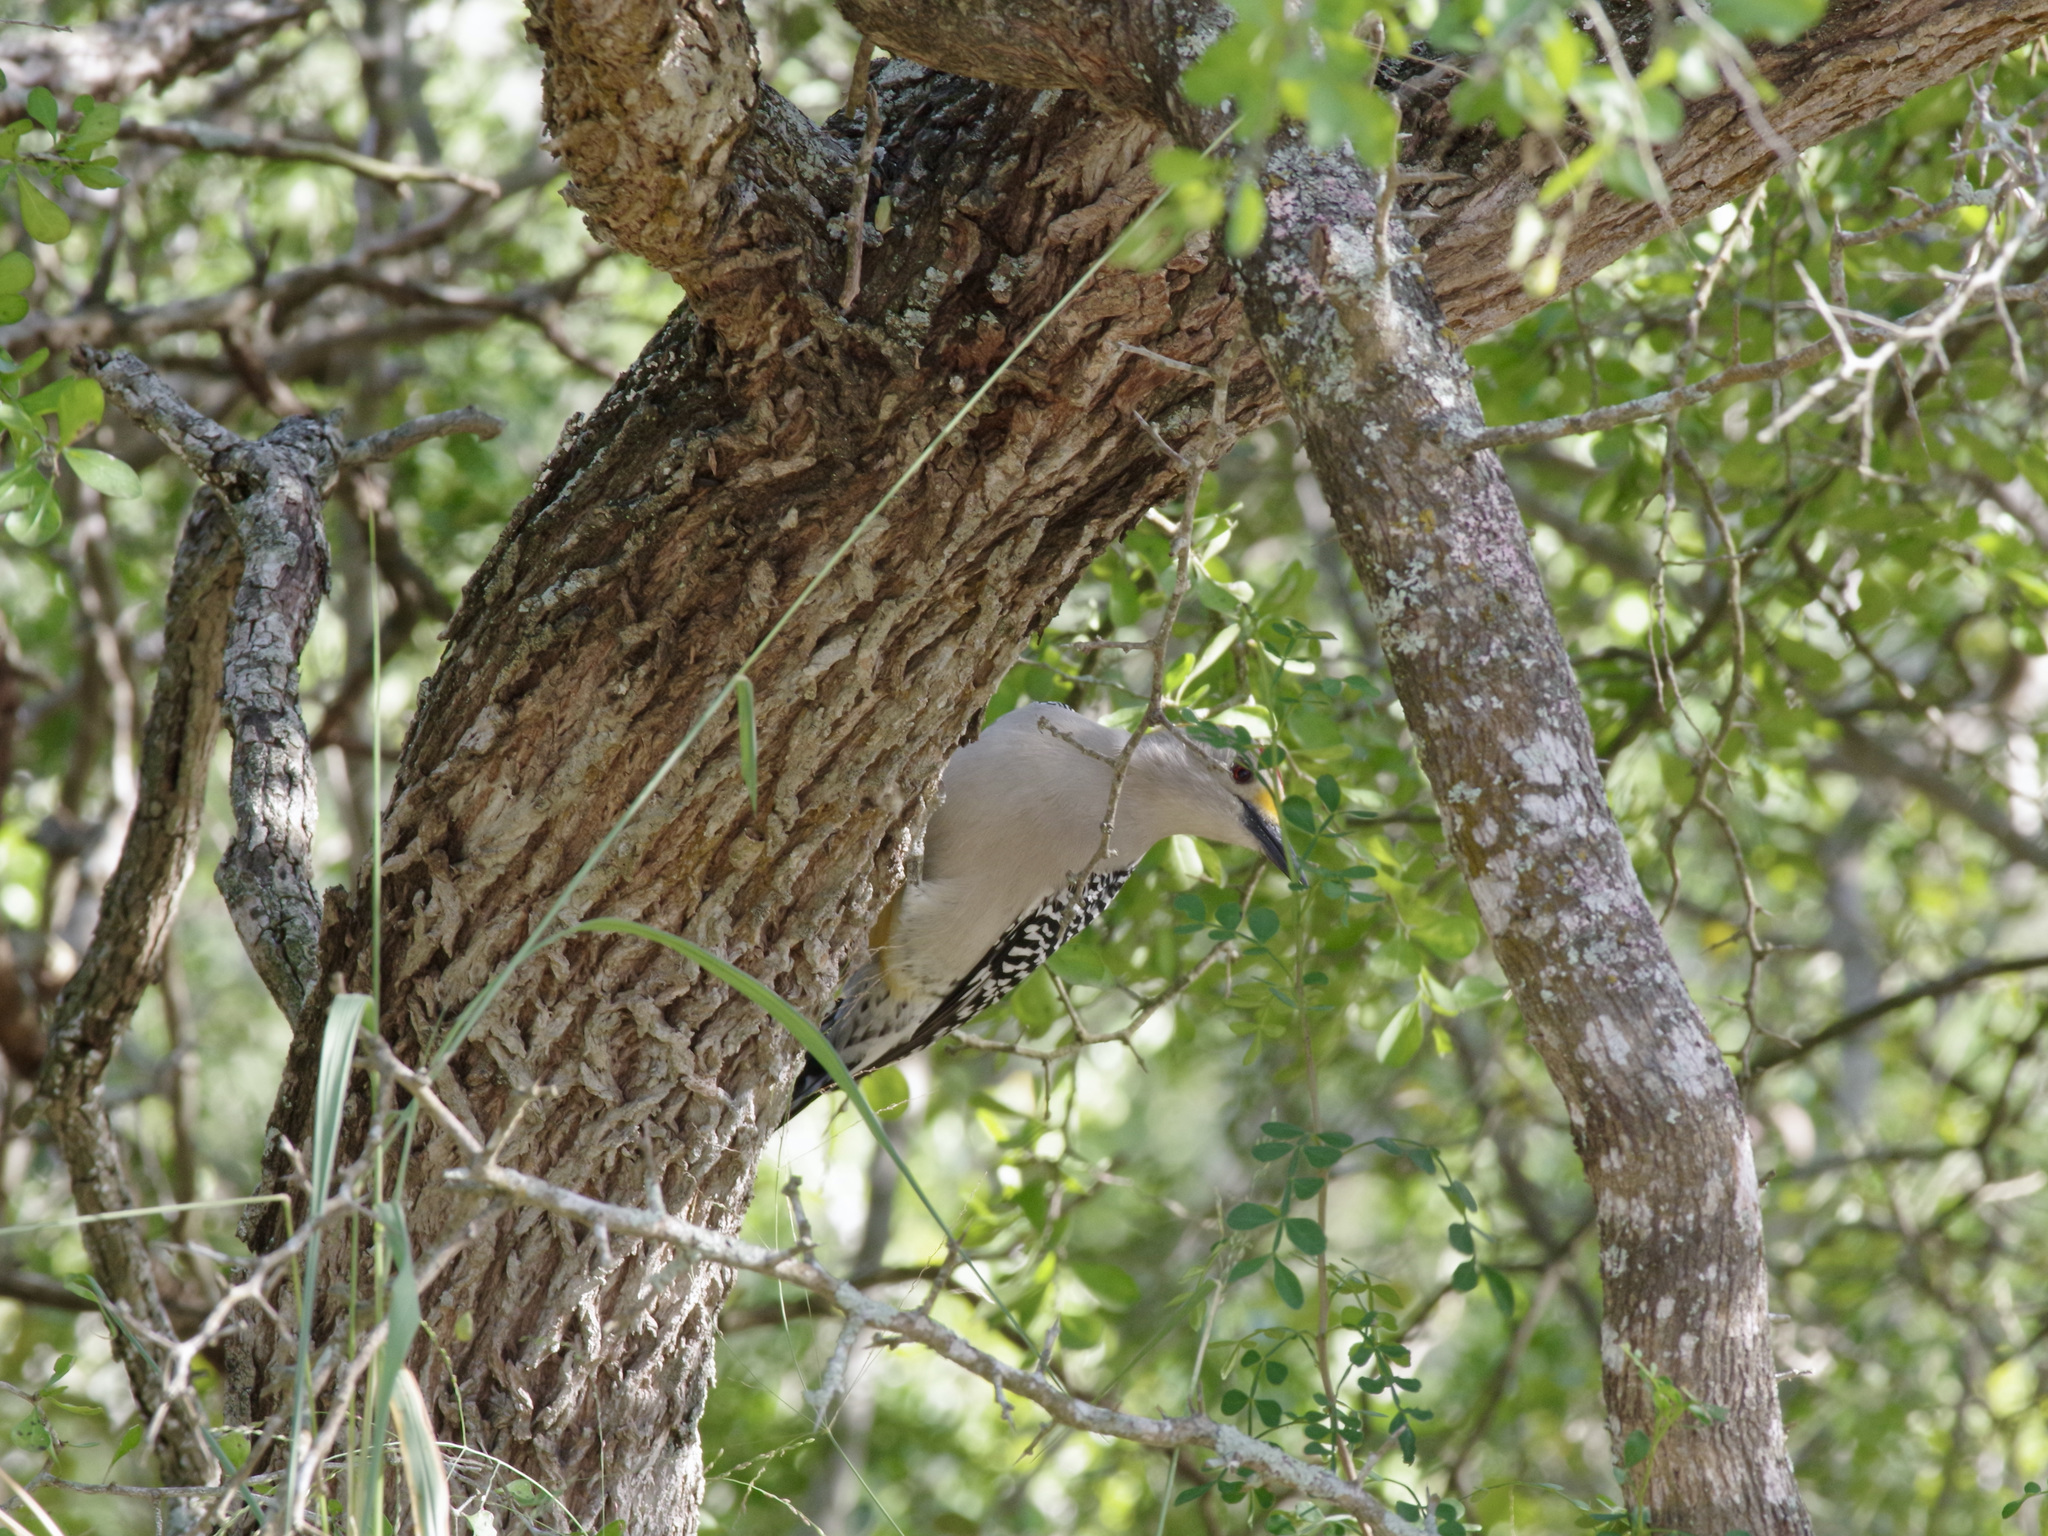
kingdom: Animalia
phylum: Chordata
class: Aves
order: Piciformes
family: Picidae
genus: Melanerpes
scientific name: Melanerpes aurifrons
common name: Golden-fronted woodpecker
